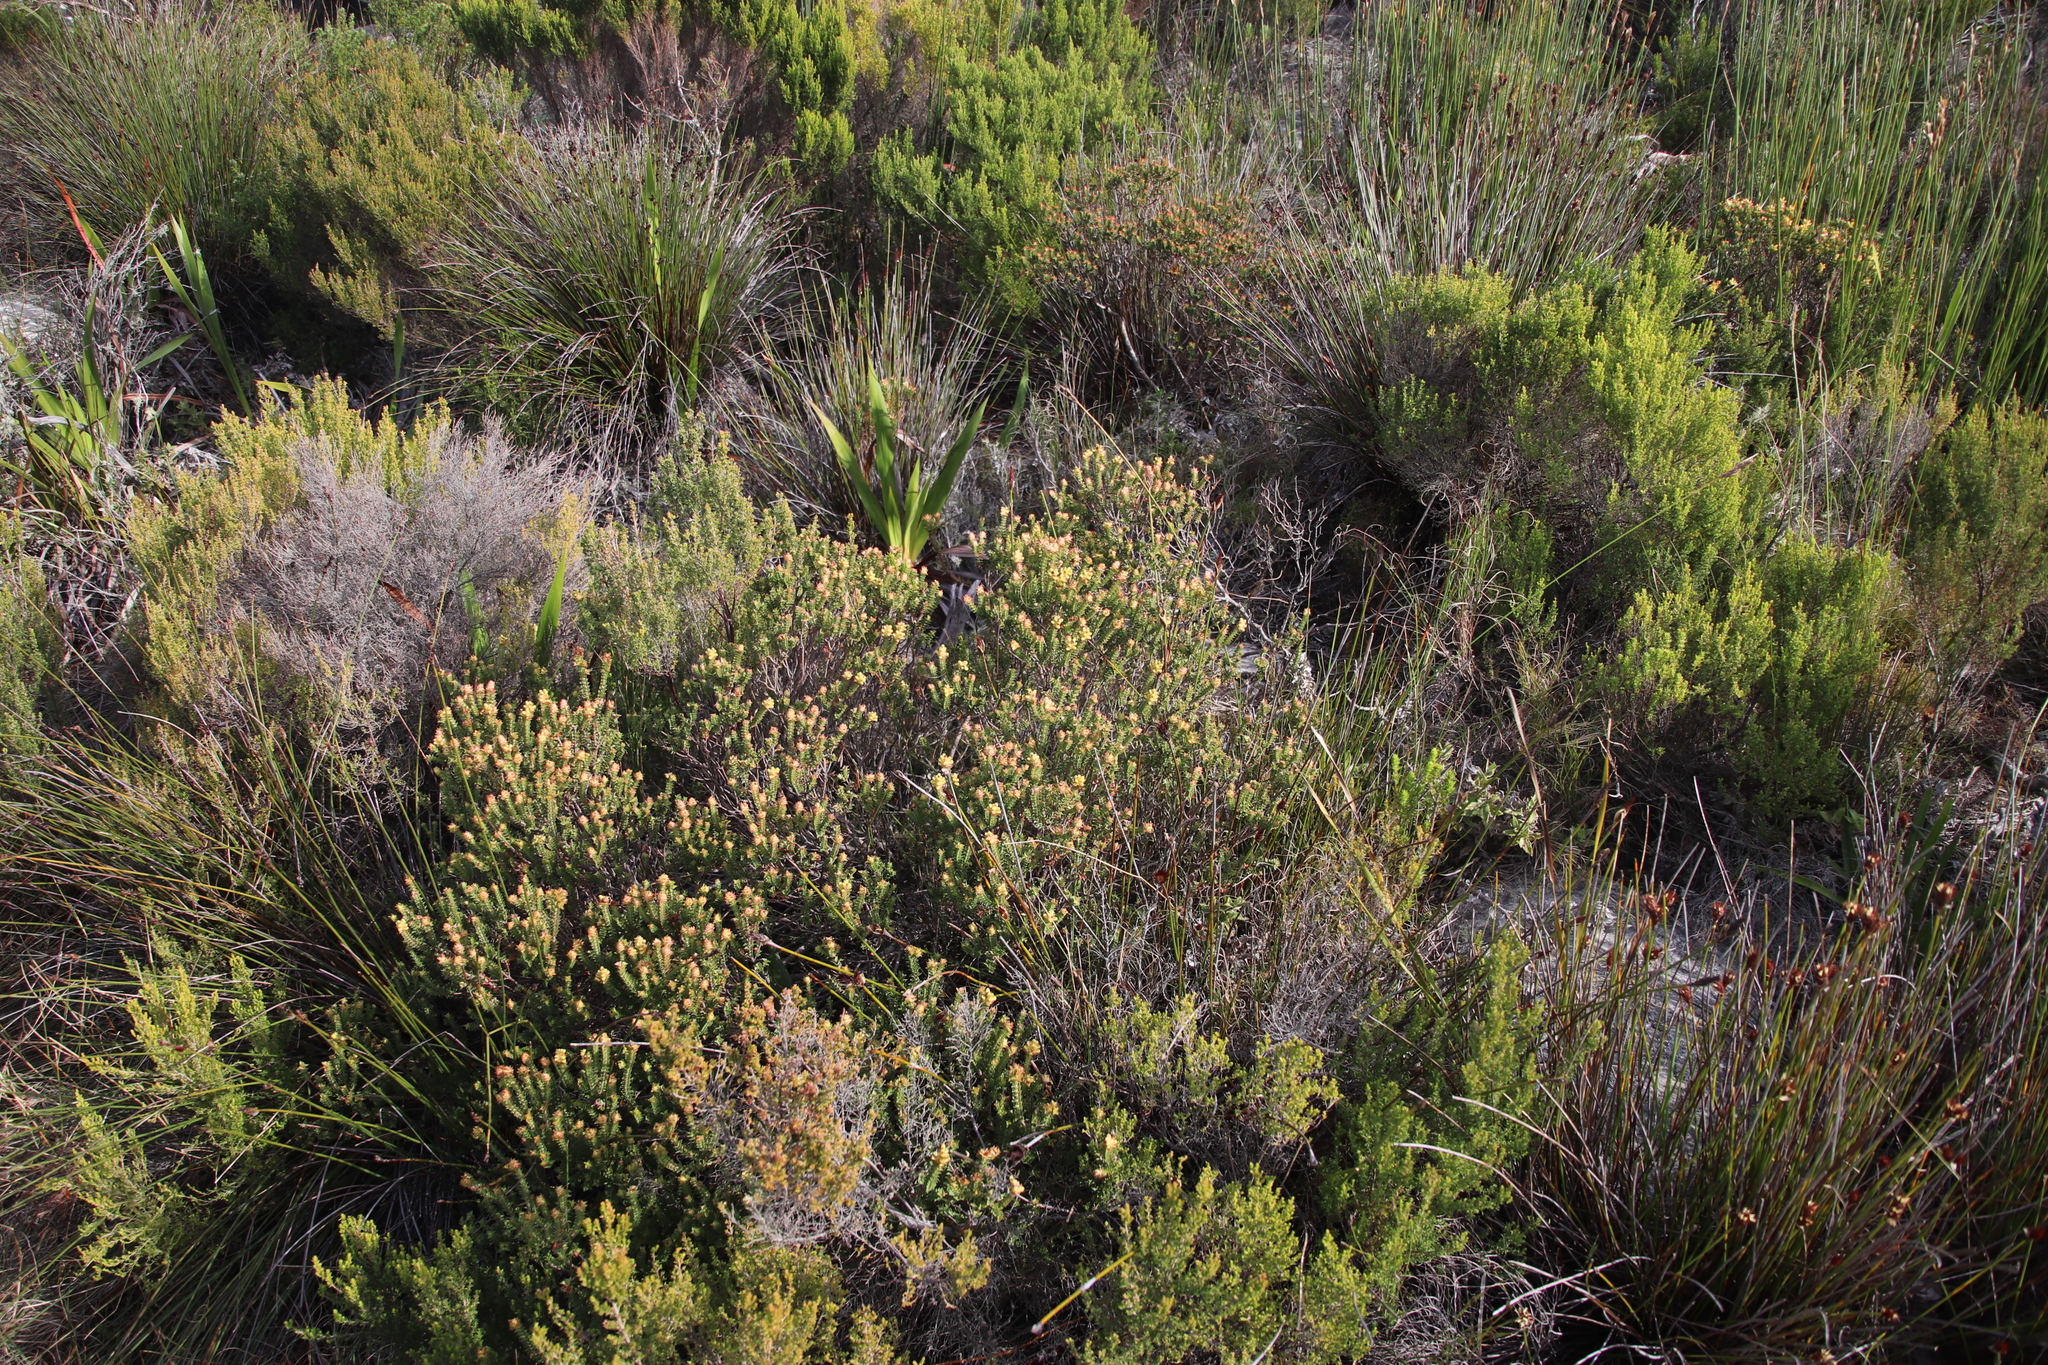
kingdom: Plantae
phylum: Tracheophyta
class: Magnoliopsida
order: Myrtales
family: Penaeaceae
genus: Penaea
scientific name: Penaea mucronata
